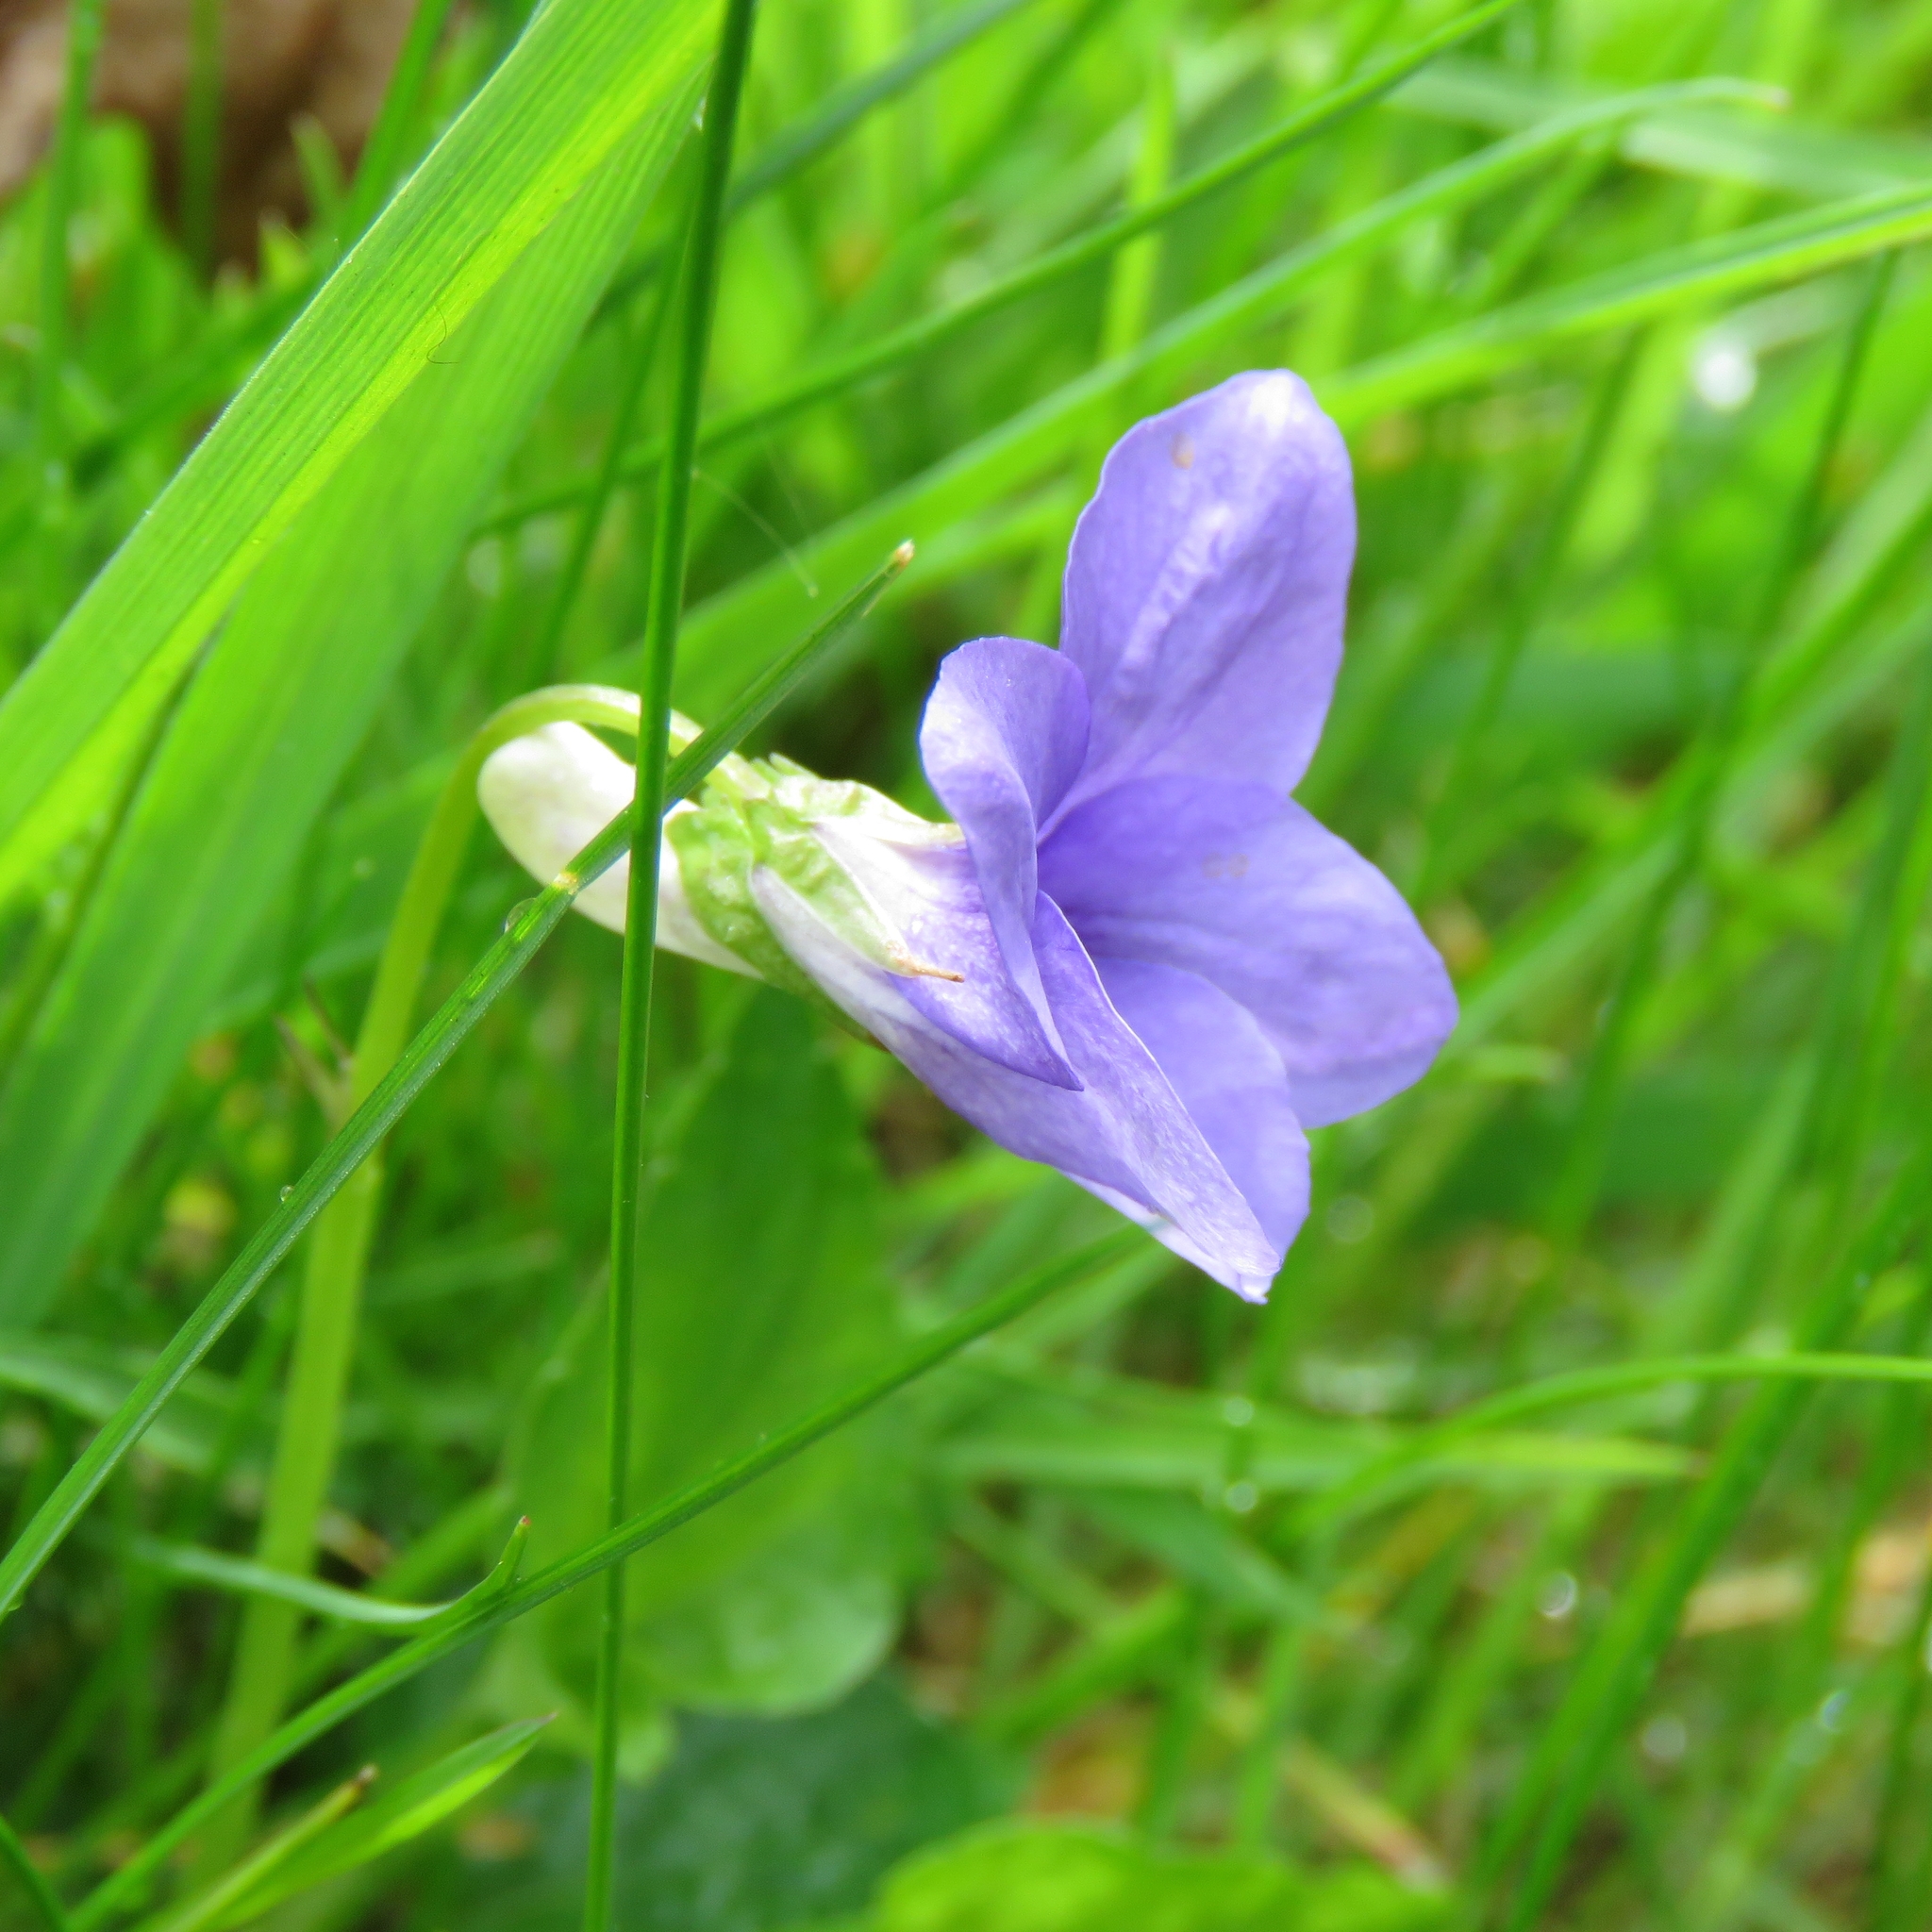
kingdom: Plantae
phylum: Tracheophyta
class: Magnoliopsida
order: Malpighiales
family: Violaceae
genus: Viola
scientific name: Viola riviniana
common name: Common dog-violet
